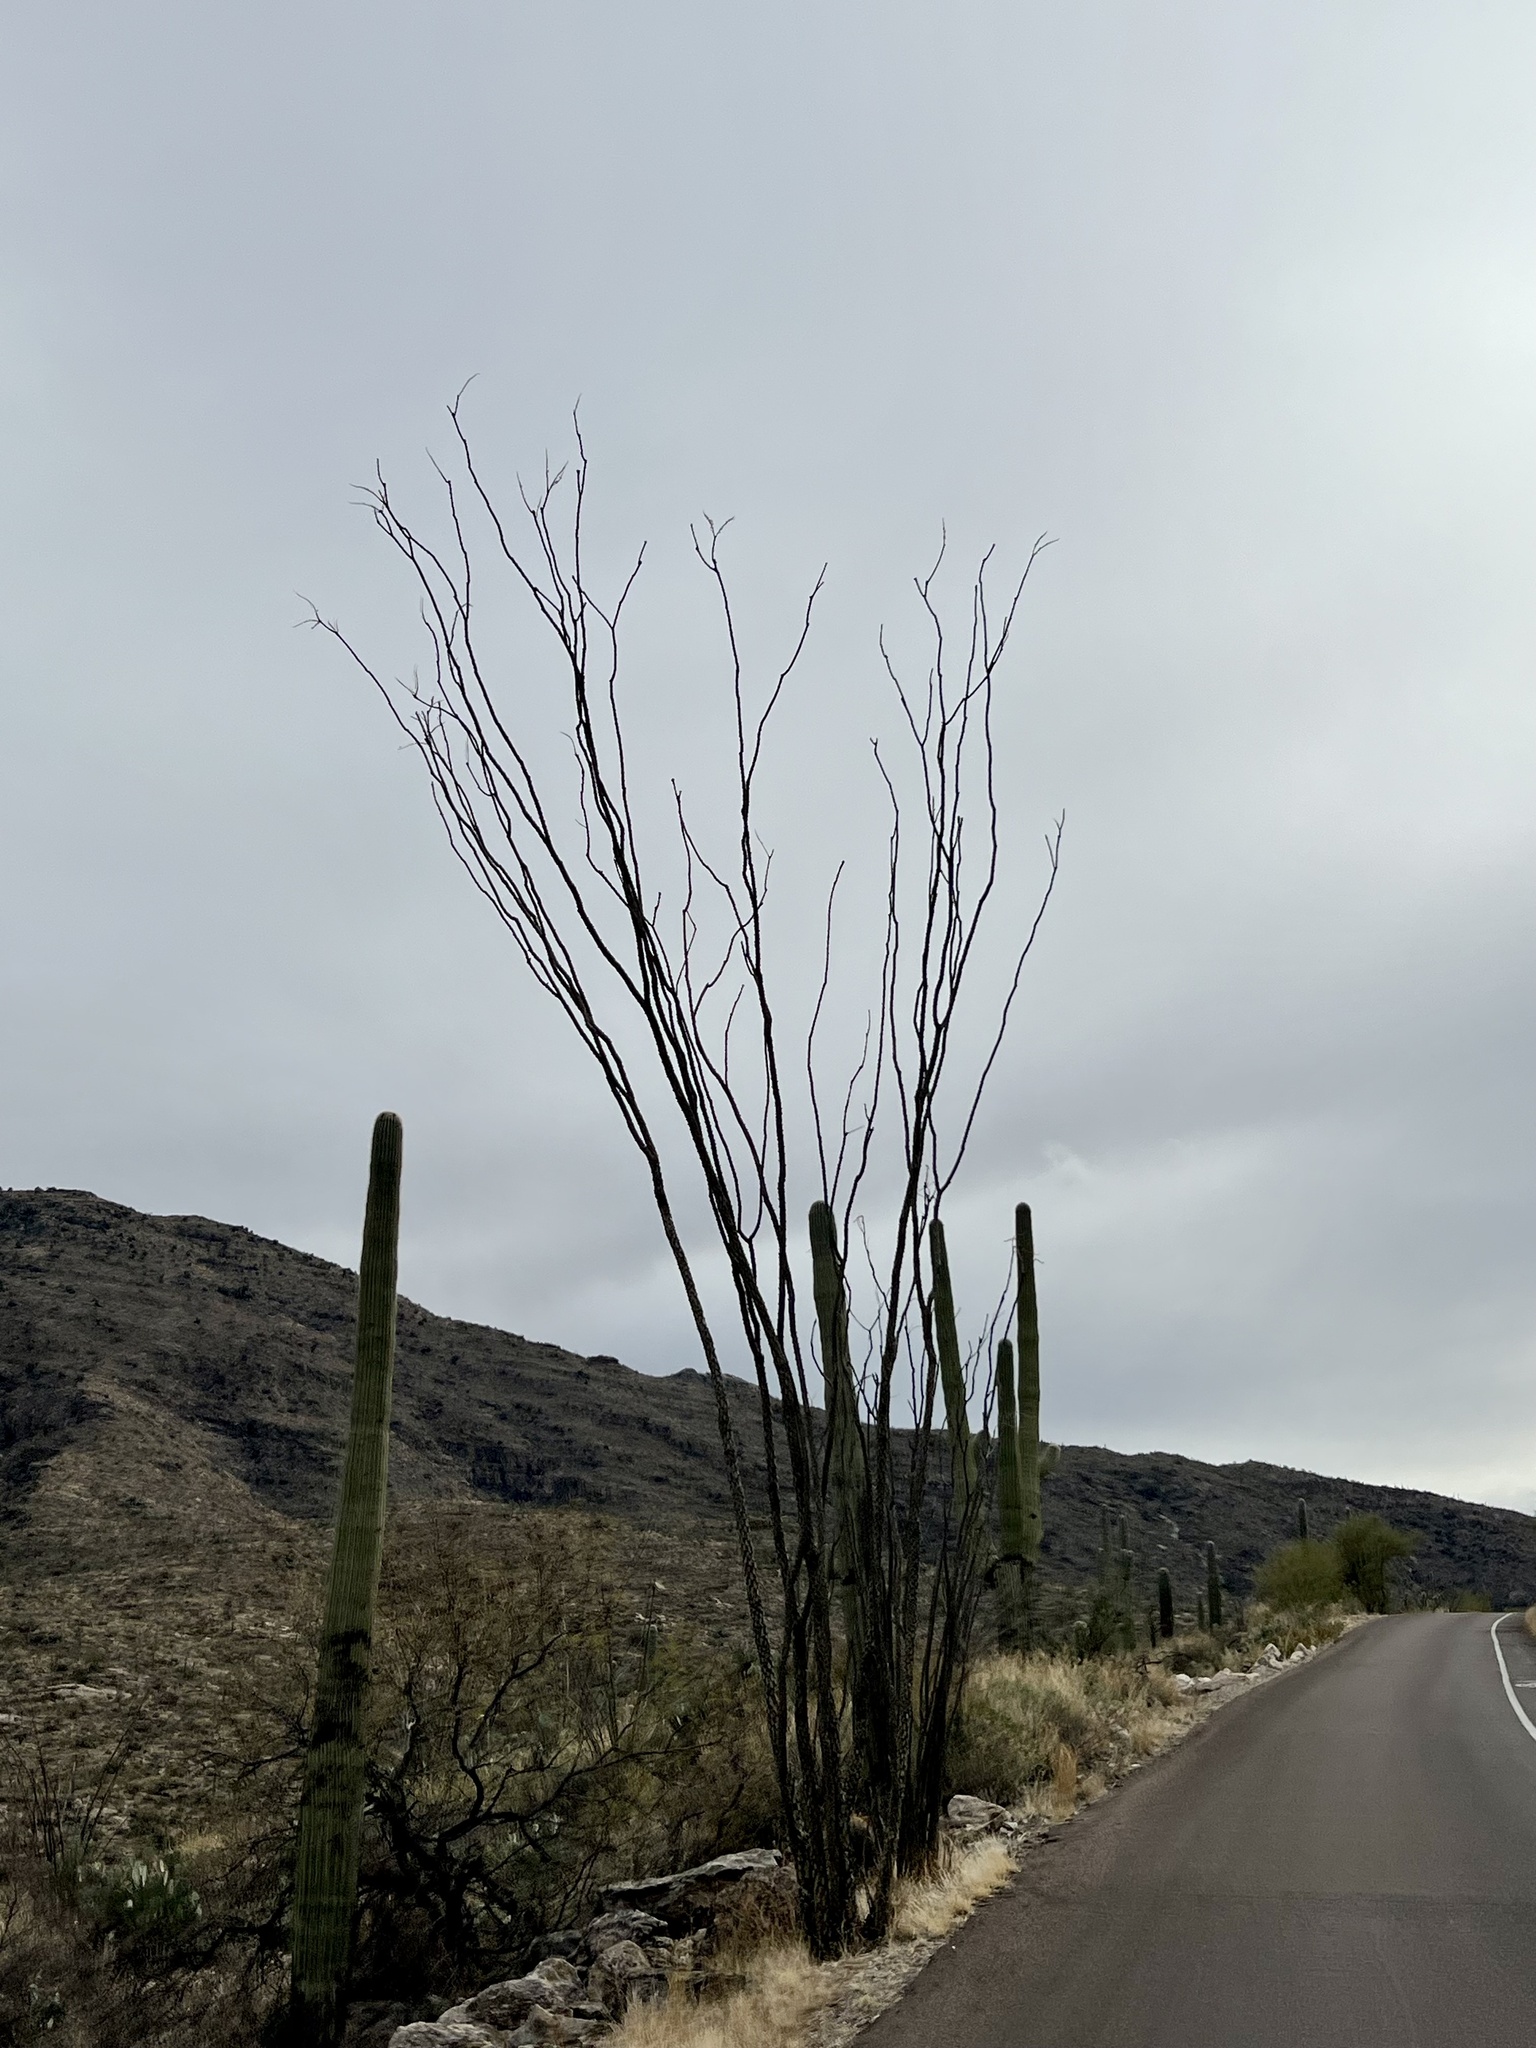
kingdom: Plantae
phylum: Tracheophyta
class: Magnoliopsida
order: Ericales
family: Fouquieriaceae
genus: Fouquieria
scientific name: Fouquieria splendens
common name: Vine-cactus
